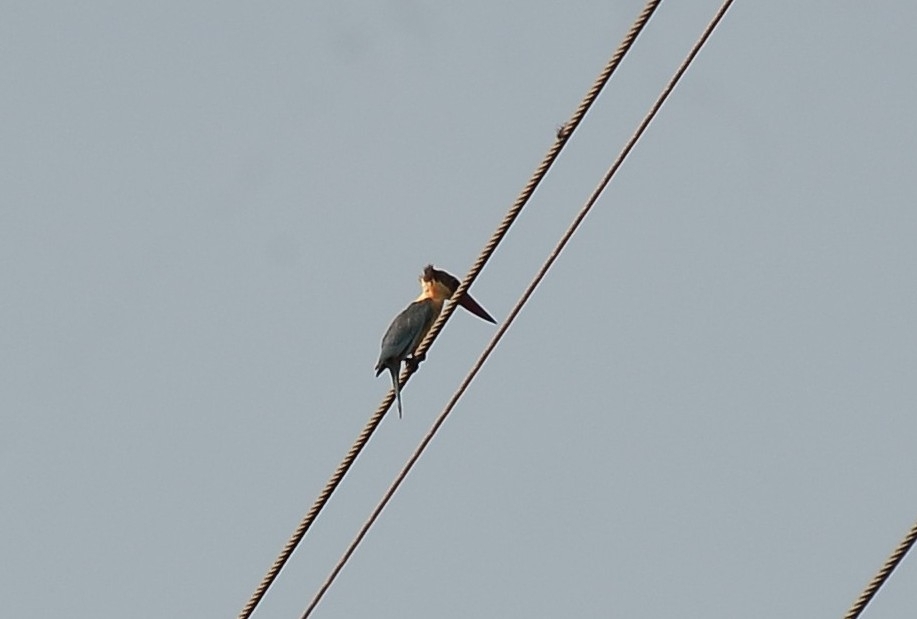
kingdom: Animalia
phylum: Chordata
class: Aves
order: Coraciiformes
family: Alcedinidae
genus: Pelargopsis
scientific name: Pelargopsis capensis
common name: Stork-billed kingfisher
